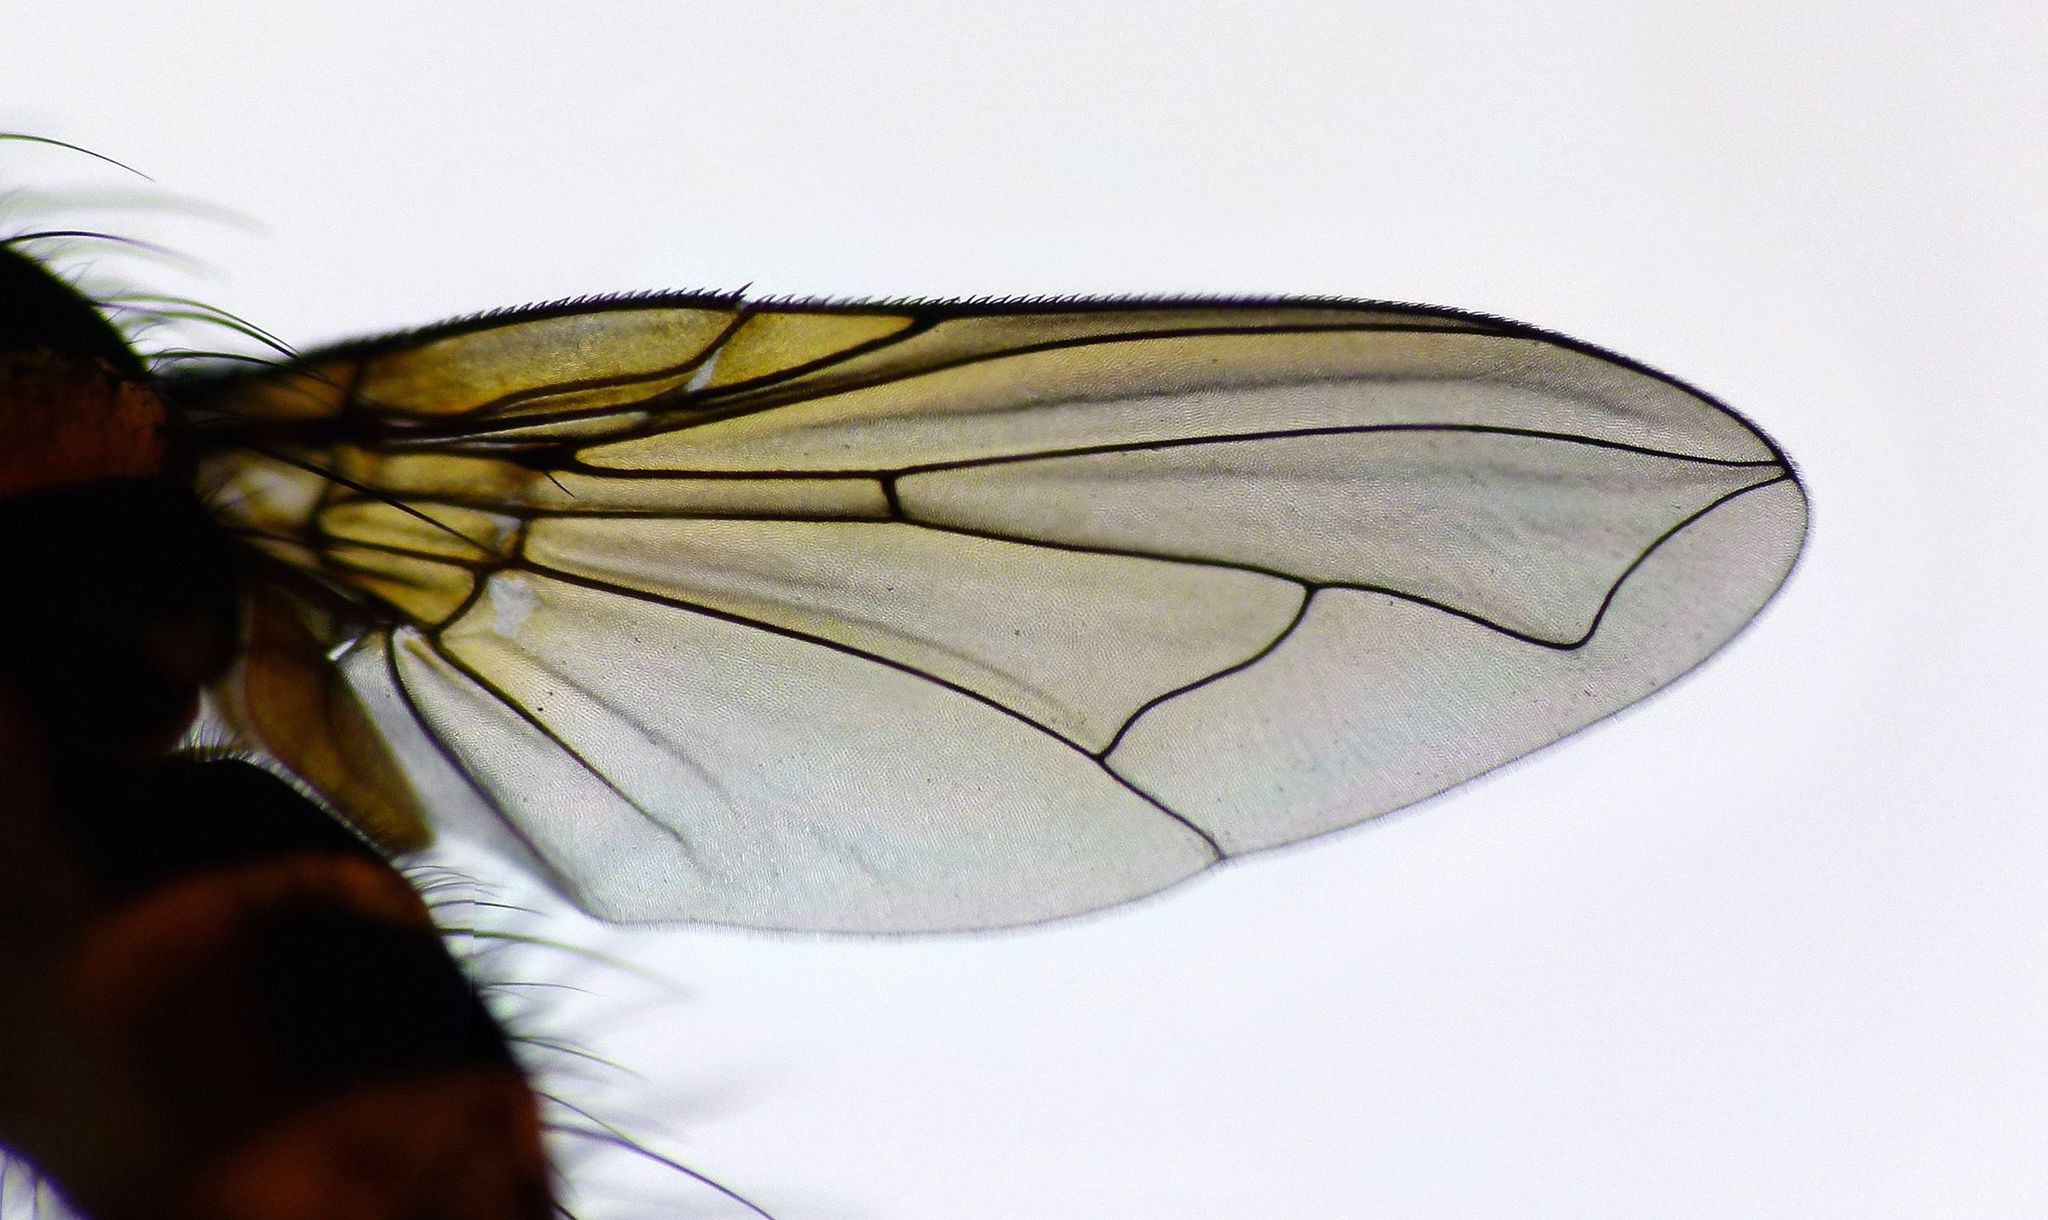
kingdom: Animalia
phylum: Arthropoda
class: Insecta
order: Diptera
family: Tachinidae
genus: Trigonospila
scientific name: Trigonospila brevifacies
